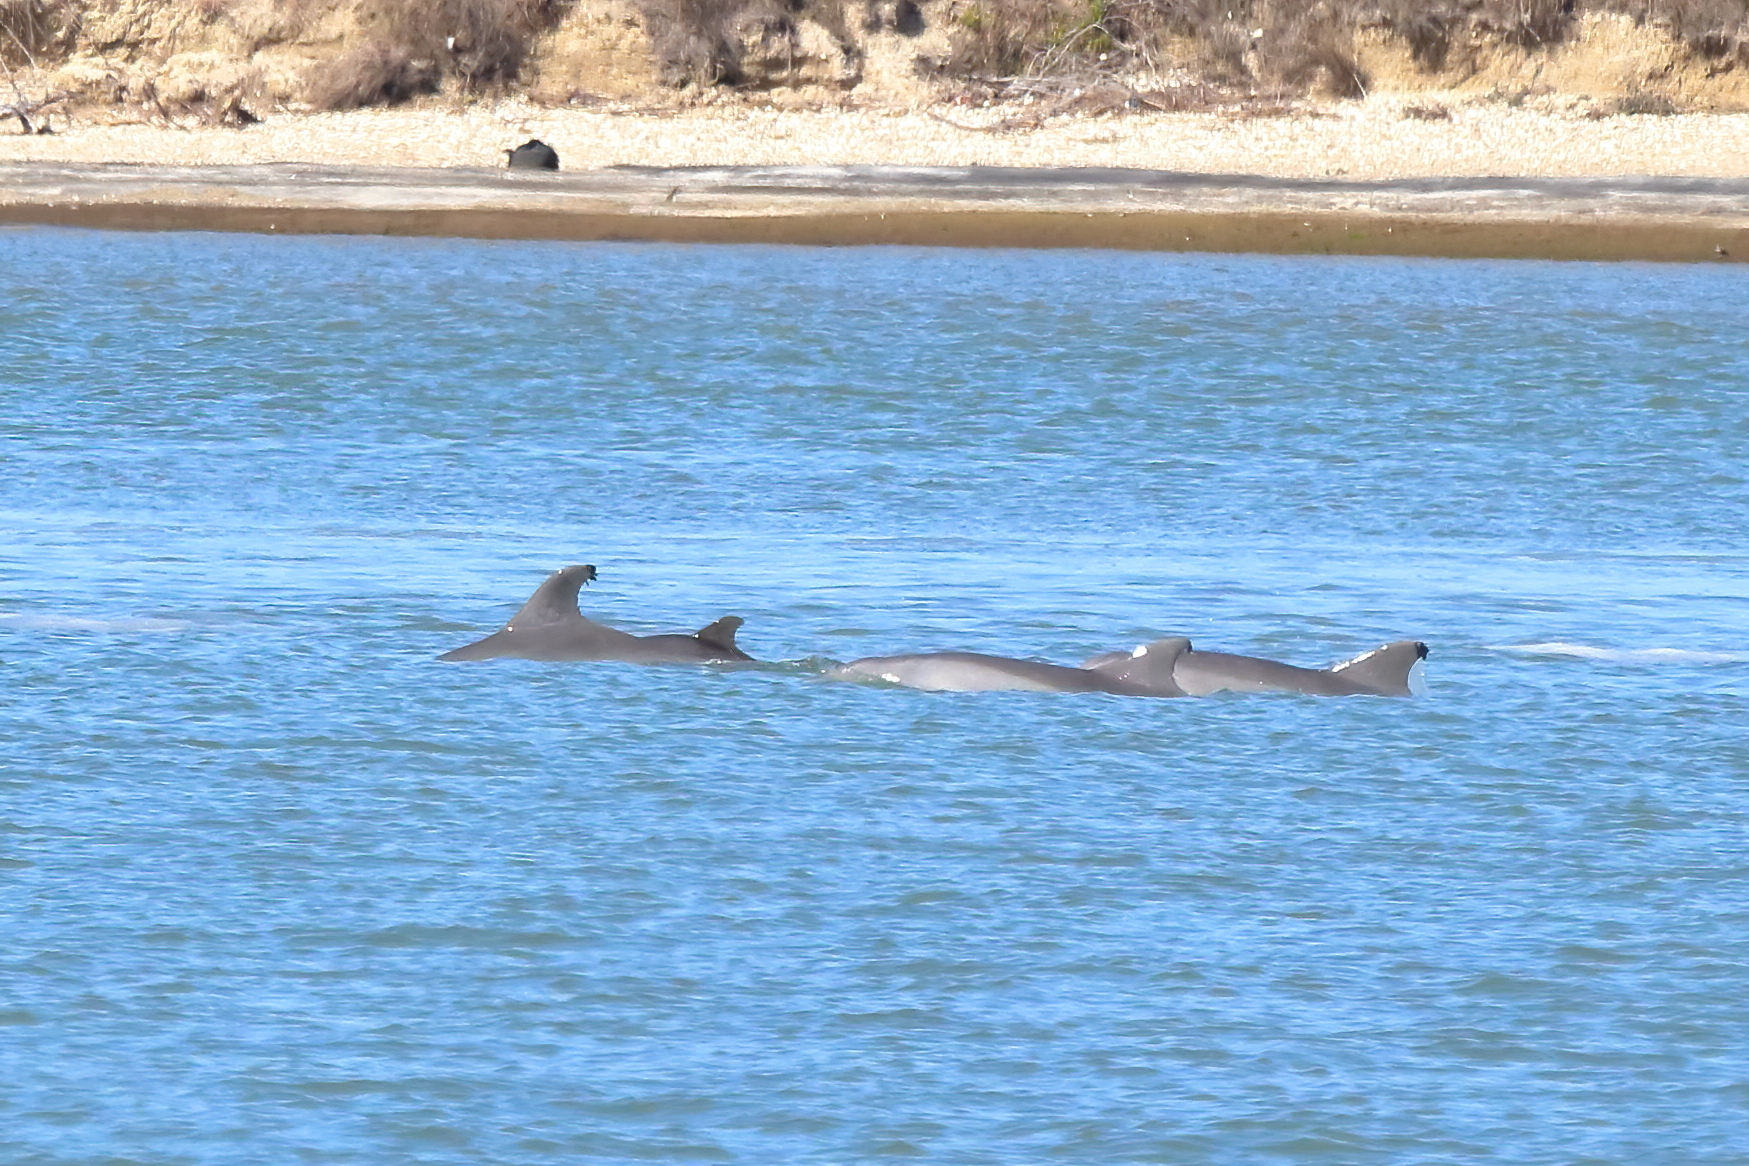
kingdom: Animalia
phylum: Chordata
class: Mammalia
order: Cetacea
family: Delphinidae
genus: Tursiops
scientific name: Tursiops truncatus
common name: Bottlenose dolphin
